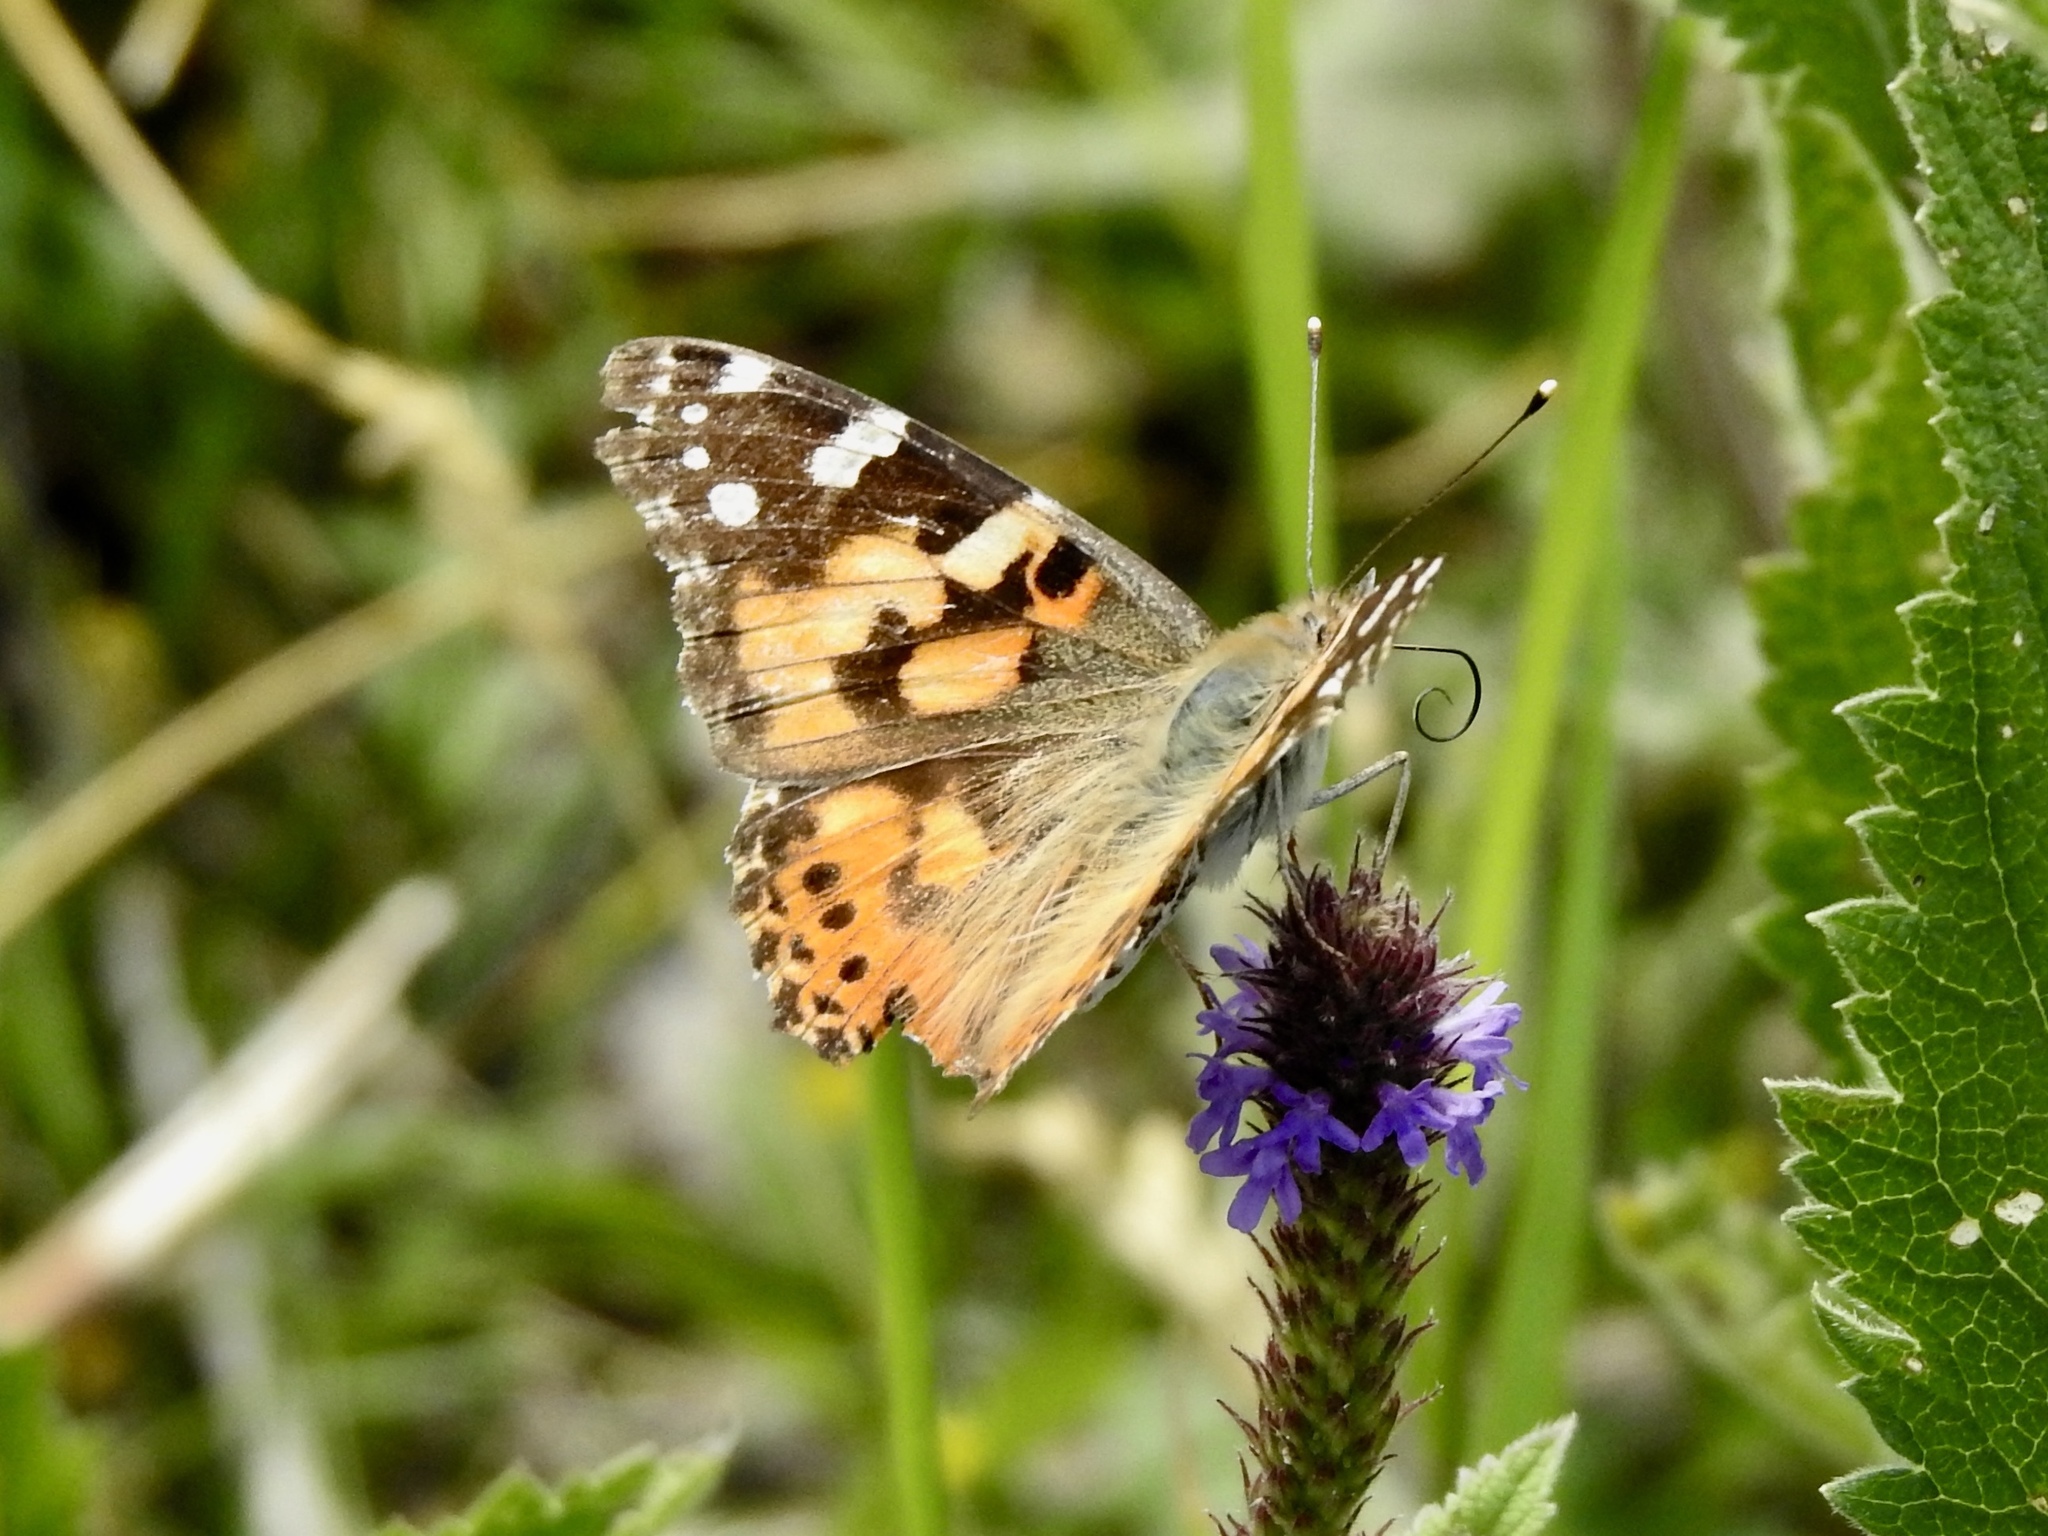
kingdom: Animalia
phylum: Arthropoda
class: Insecta
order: Lepidoptera
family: Nymphalidae
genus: Vanessa
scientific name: Vanessa cardui
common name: Painted lady
